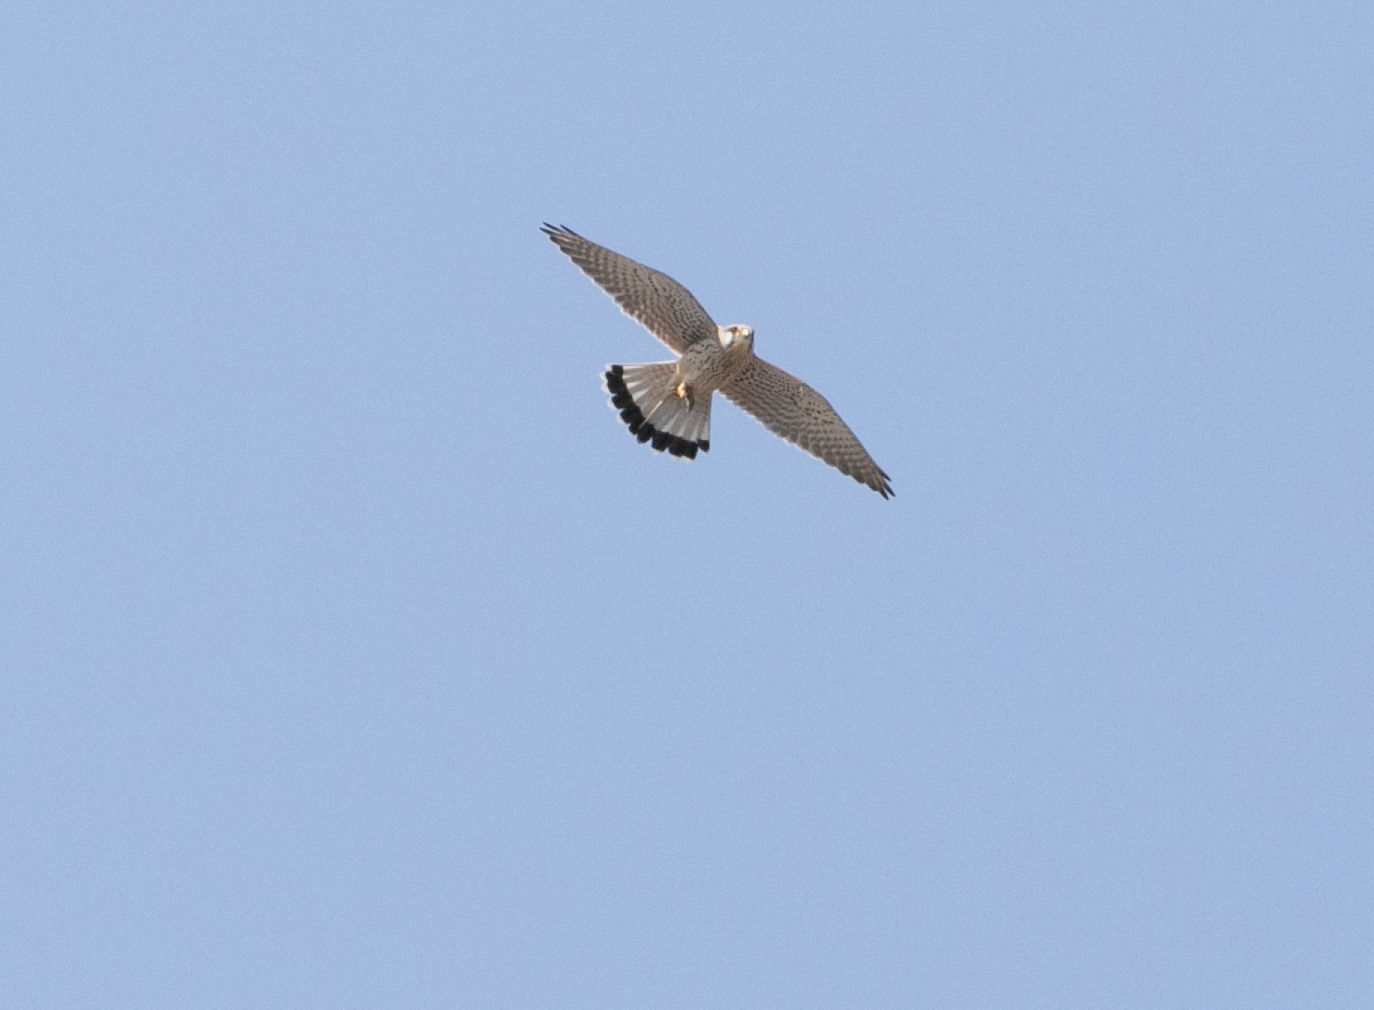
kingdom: Animalia
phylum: Chordata
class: Aves
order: Falconiformes
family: Falconidae
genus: Falco
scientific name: Falco tinnunculus
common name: Common kestrel
